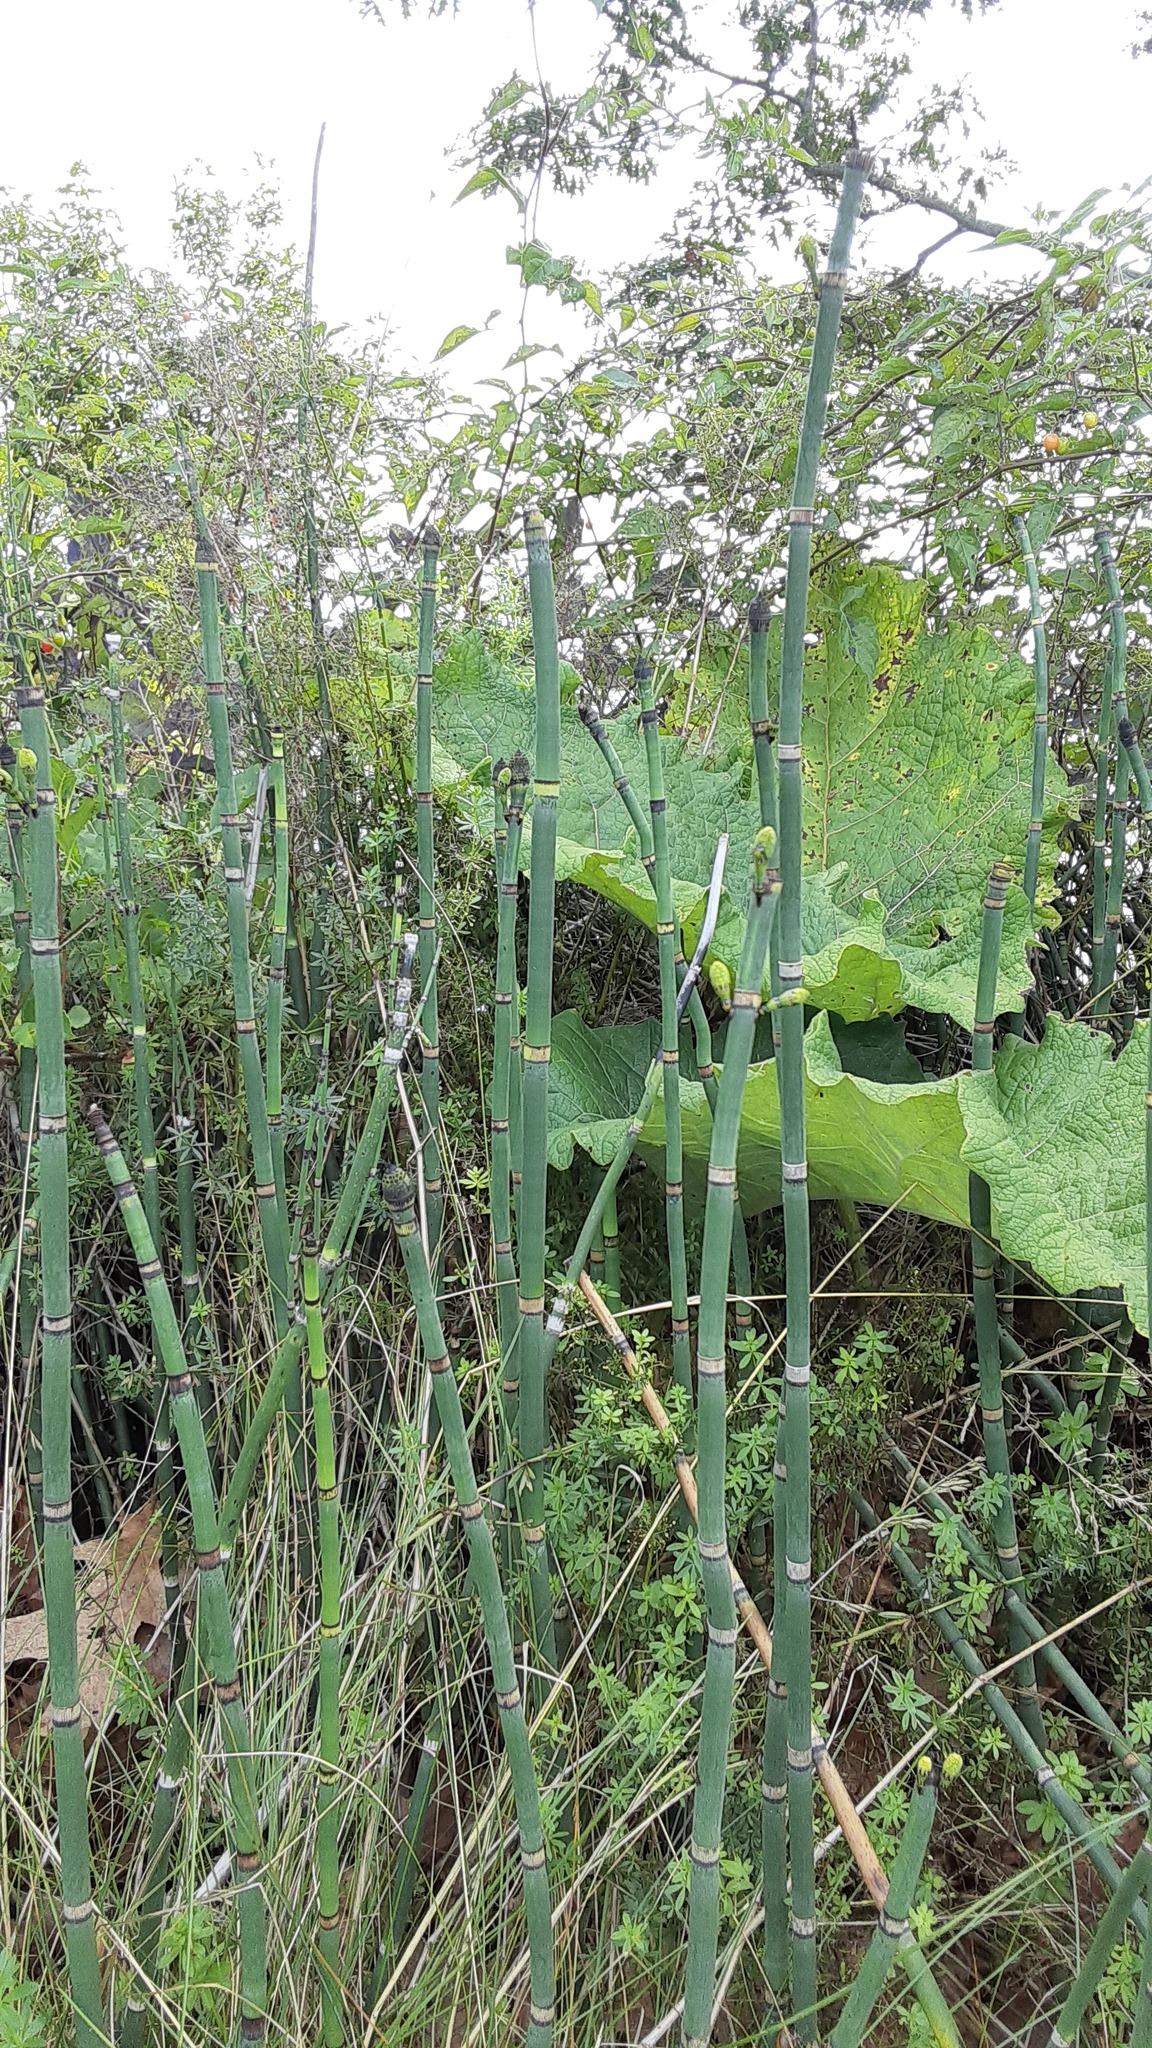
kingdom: Plantae
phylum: Tracheophyta
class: Polypodiopsida
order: Equisetales
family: Equisetaceae
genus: Equisetum
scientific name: Equisetum hyemale
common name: Rough horsetail
